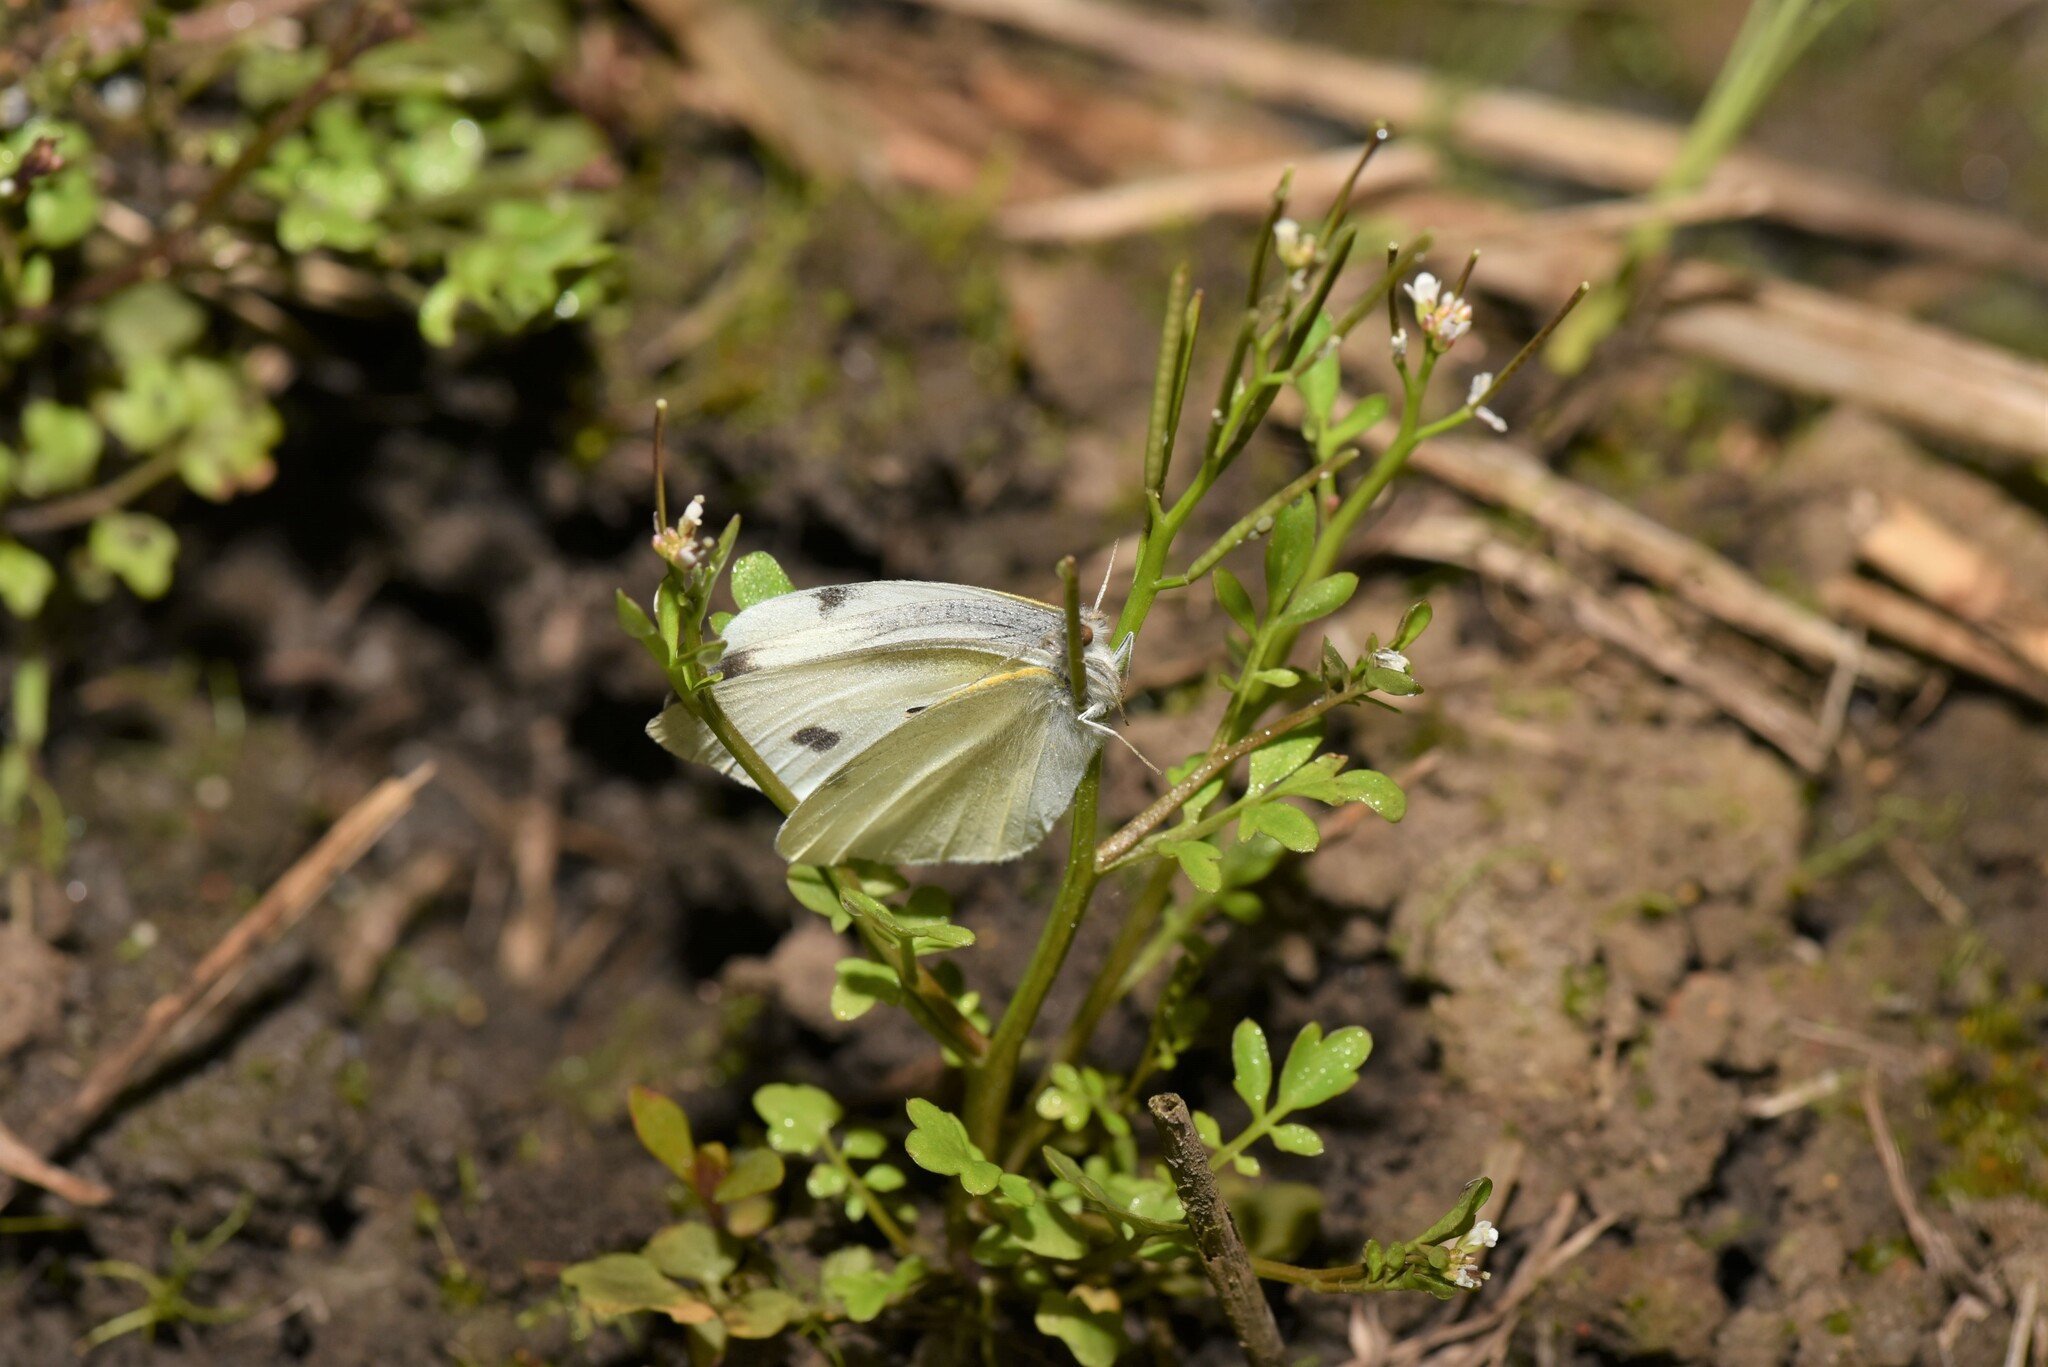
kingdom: Animalia
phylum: Arthropoda
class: Insecta
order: Lepidoptera
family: Pieridae
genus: Pieris
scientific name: Pieris rapae
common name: Small white
